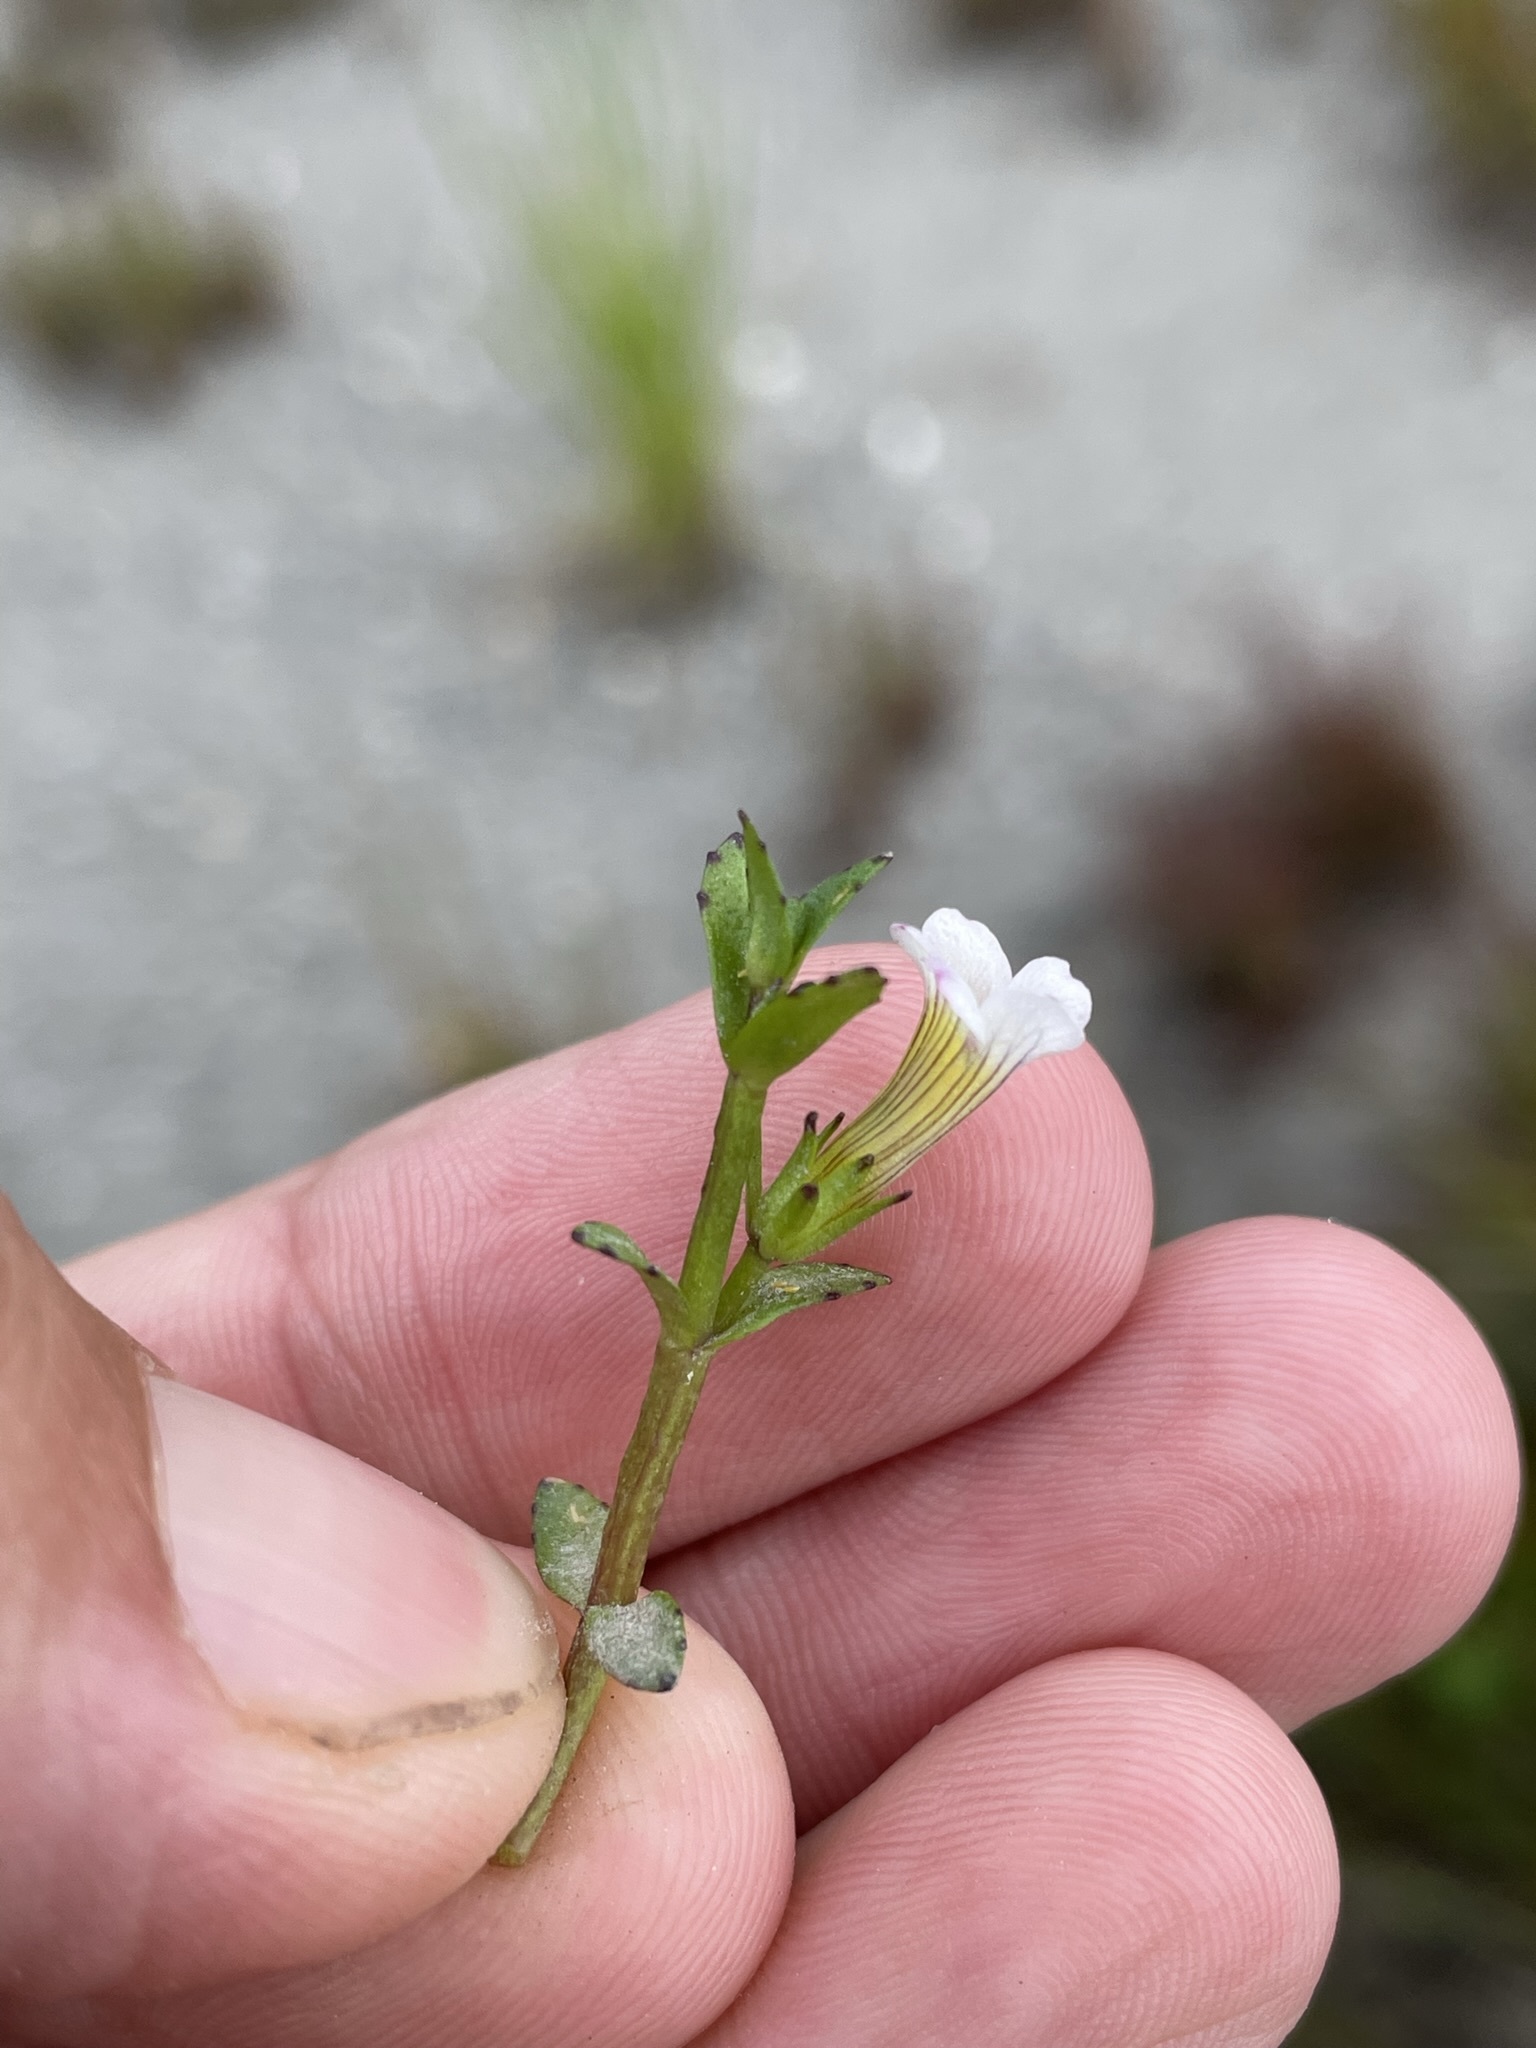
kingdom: Plantae
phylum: Tracheophyta
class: Magnoliopsida
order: Lamiales
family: Plantaginaceae
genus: Gratiola
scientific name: Gratiola sexdentata
